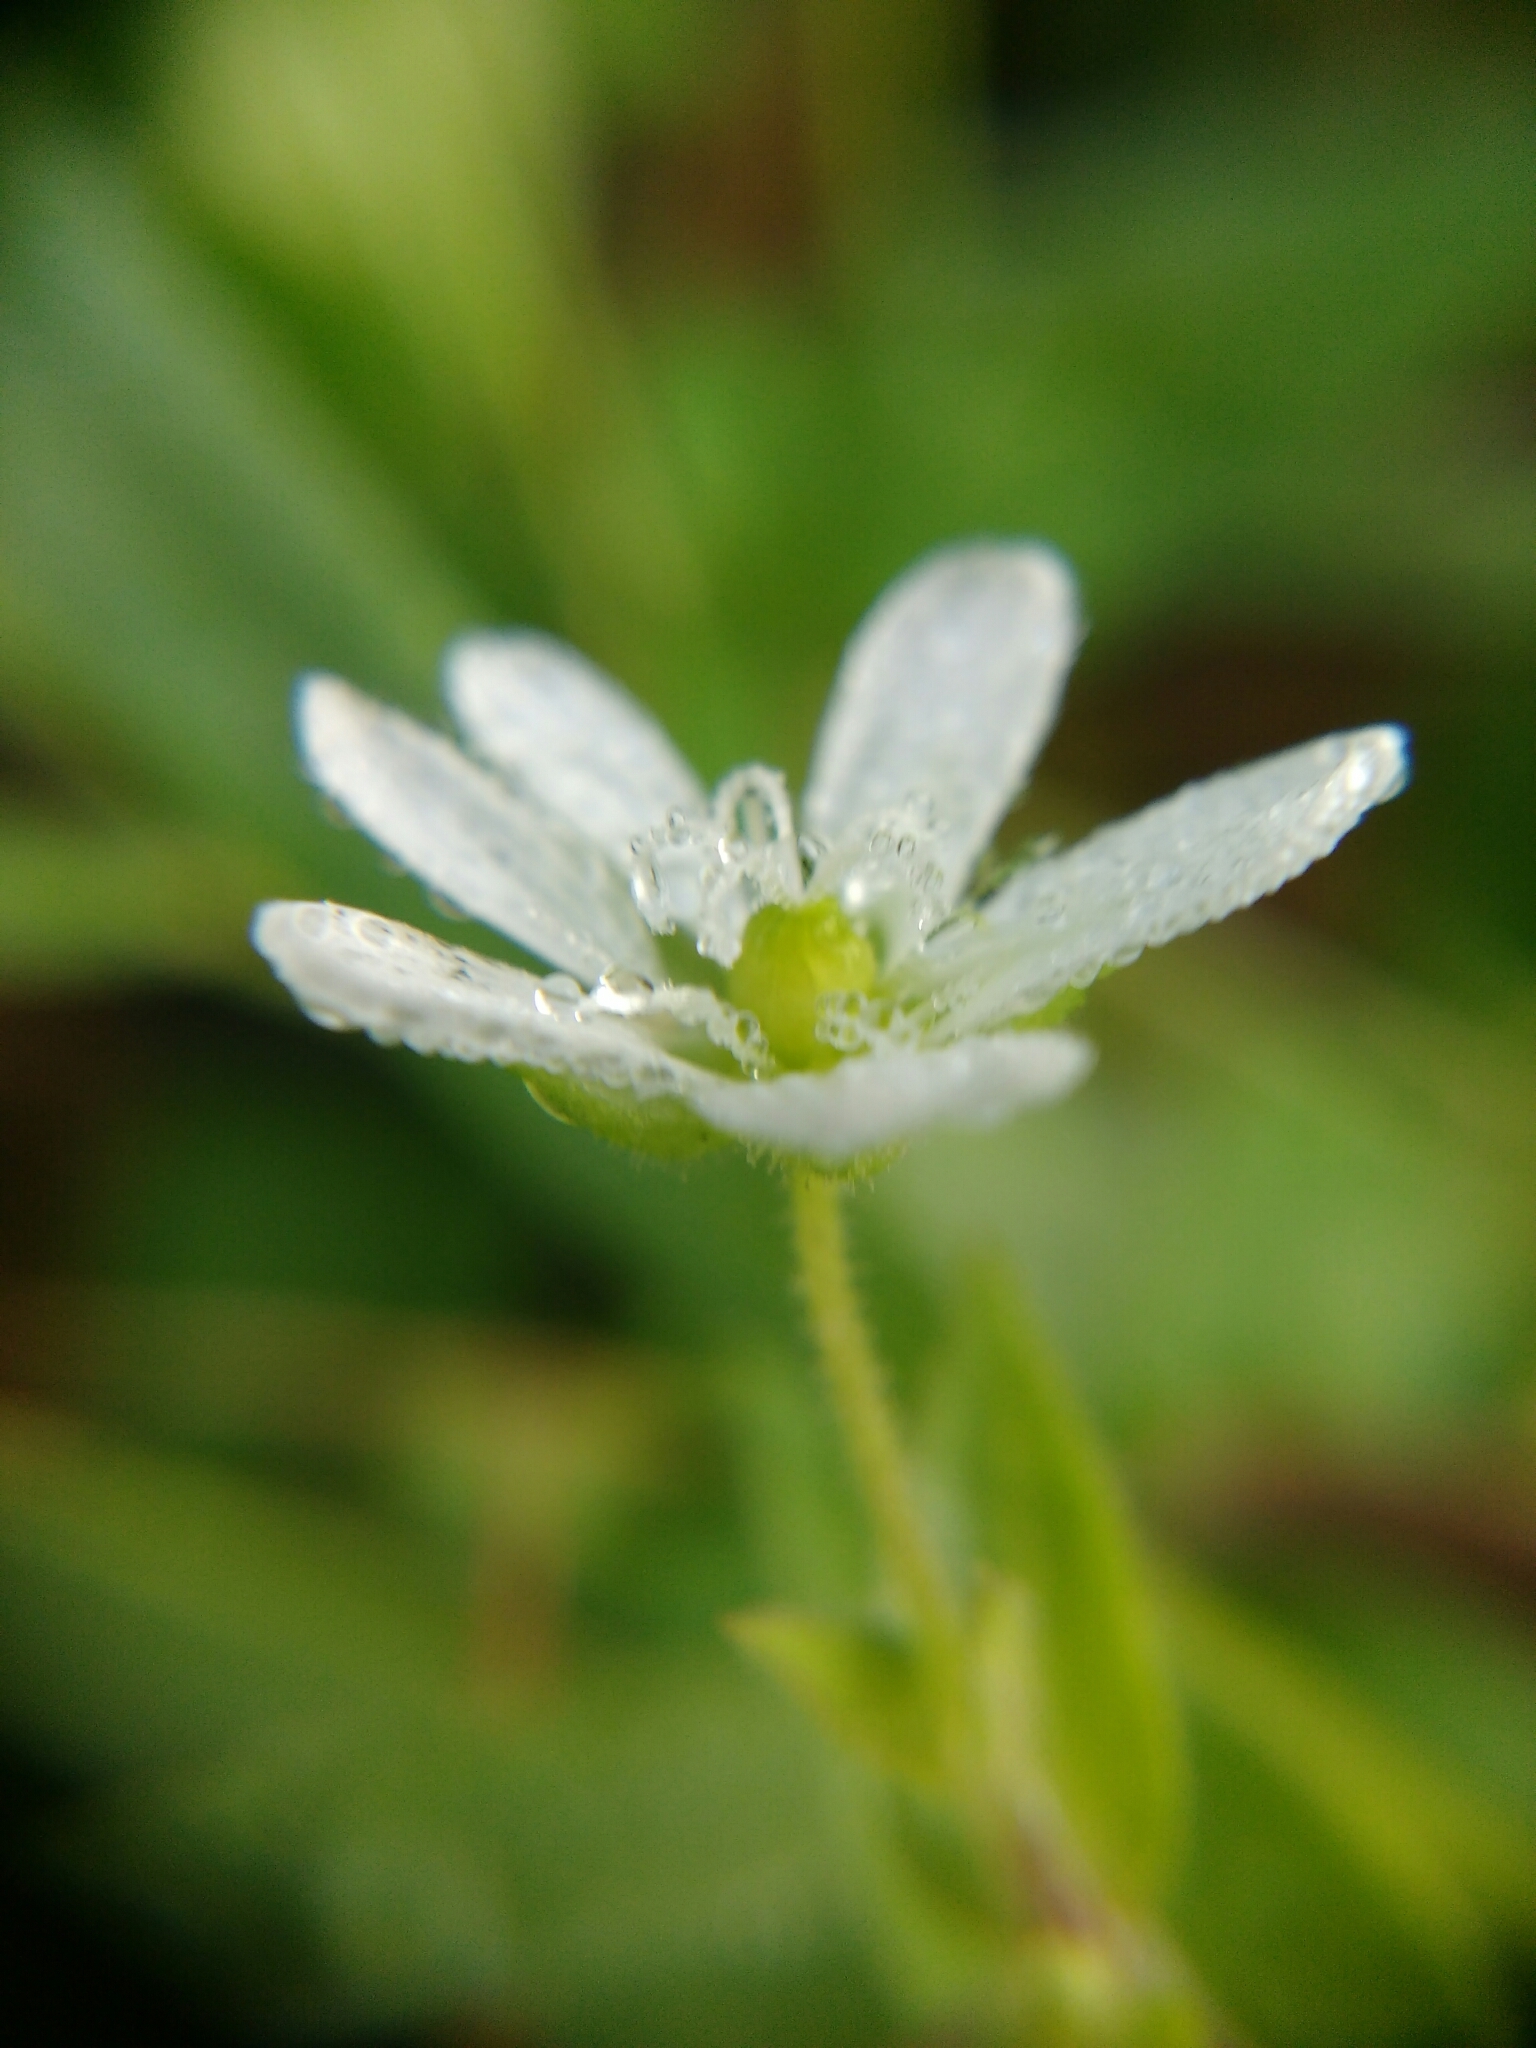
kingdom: Plantae
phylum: Tracheophyta
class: Magnoliopsida
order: Caryophyllales
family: Caryophyllaceae
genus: Stellaria
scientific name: Stellaria aquatica
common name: Water chickweed
